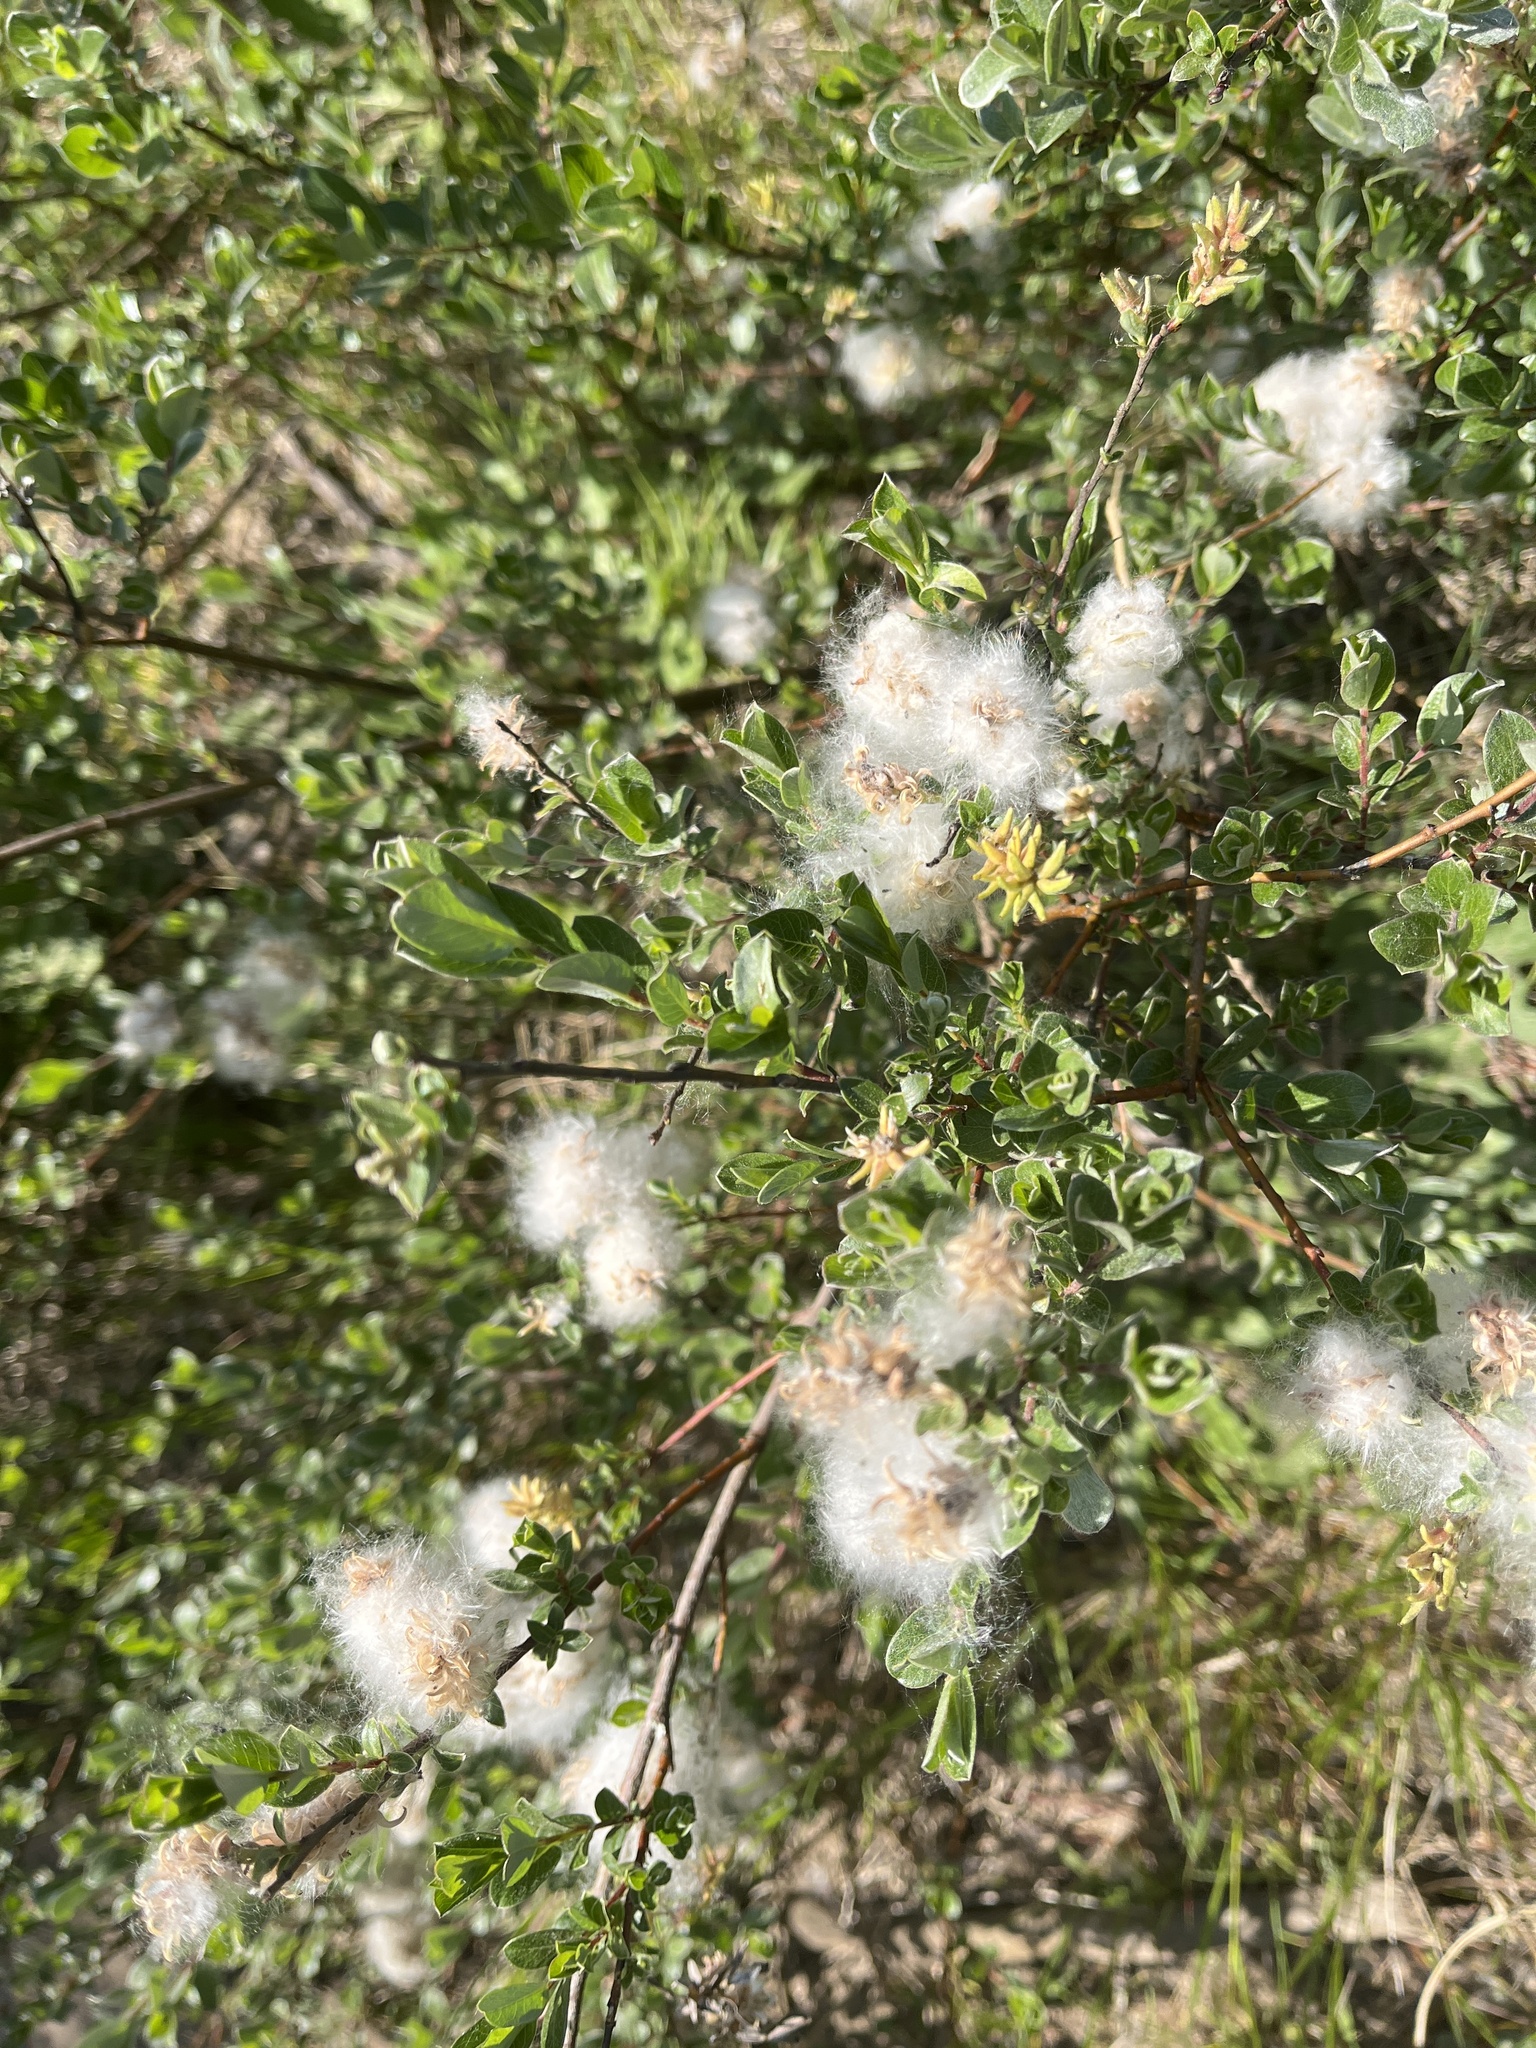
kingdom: Plantae
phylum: Tracheophyta
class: Magnoliopsida
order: Malpighiales
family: Salicaceae
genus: Salix
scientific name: Salix repens
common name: Creeping willow
